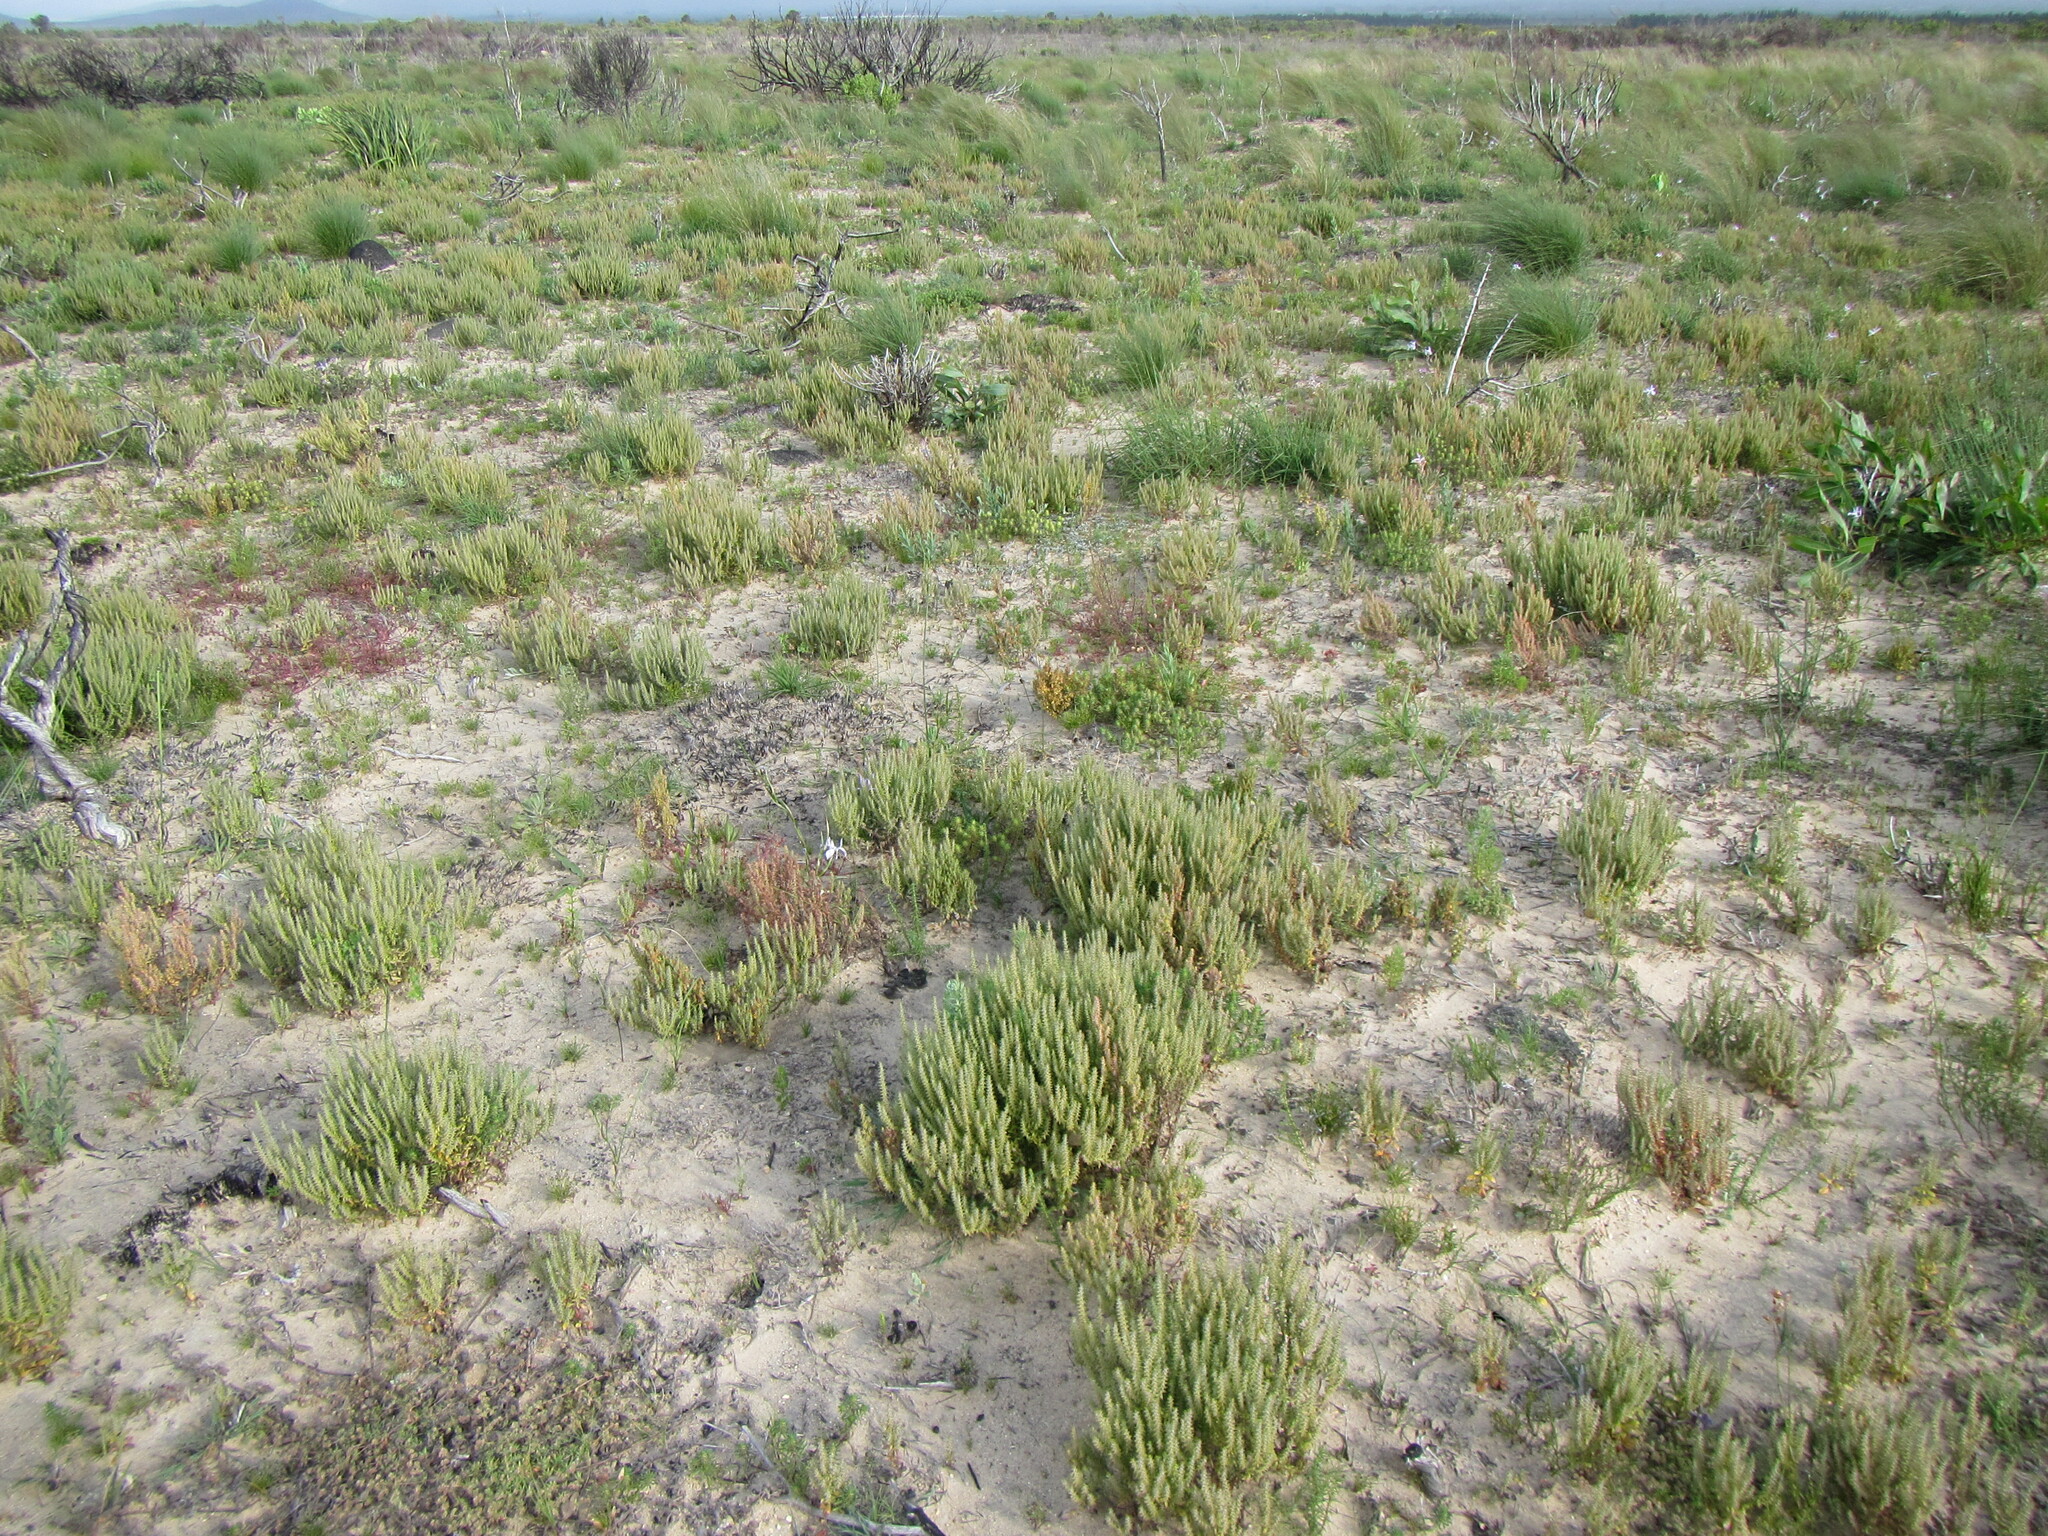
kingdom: Plantae
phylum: Tracheophyta
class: Magnoliopsida
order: Lamiales
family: Scrophulariaceae
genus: Chenopodiopsis
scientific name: Chenopodiopsis hirta
